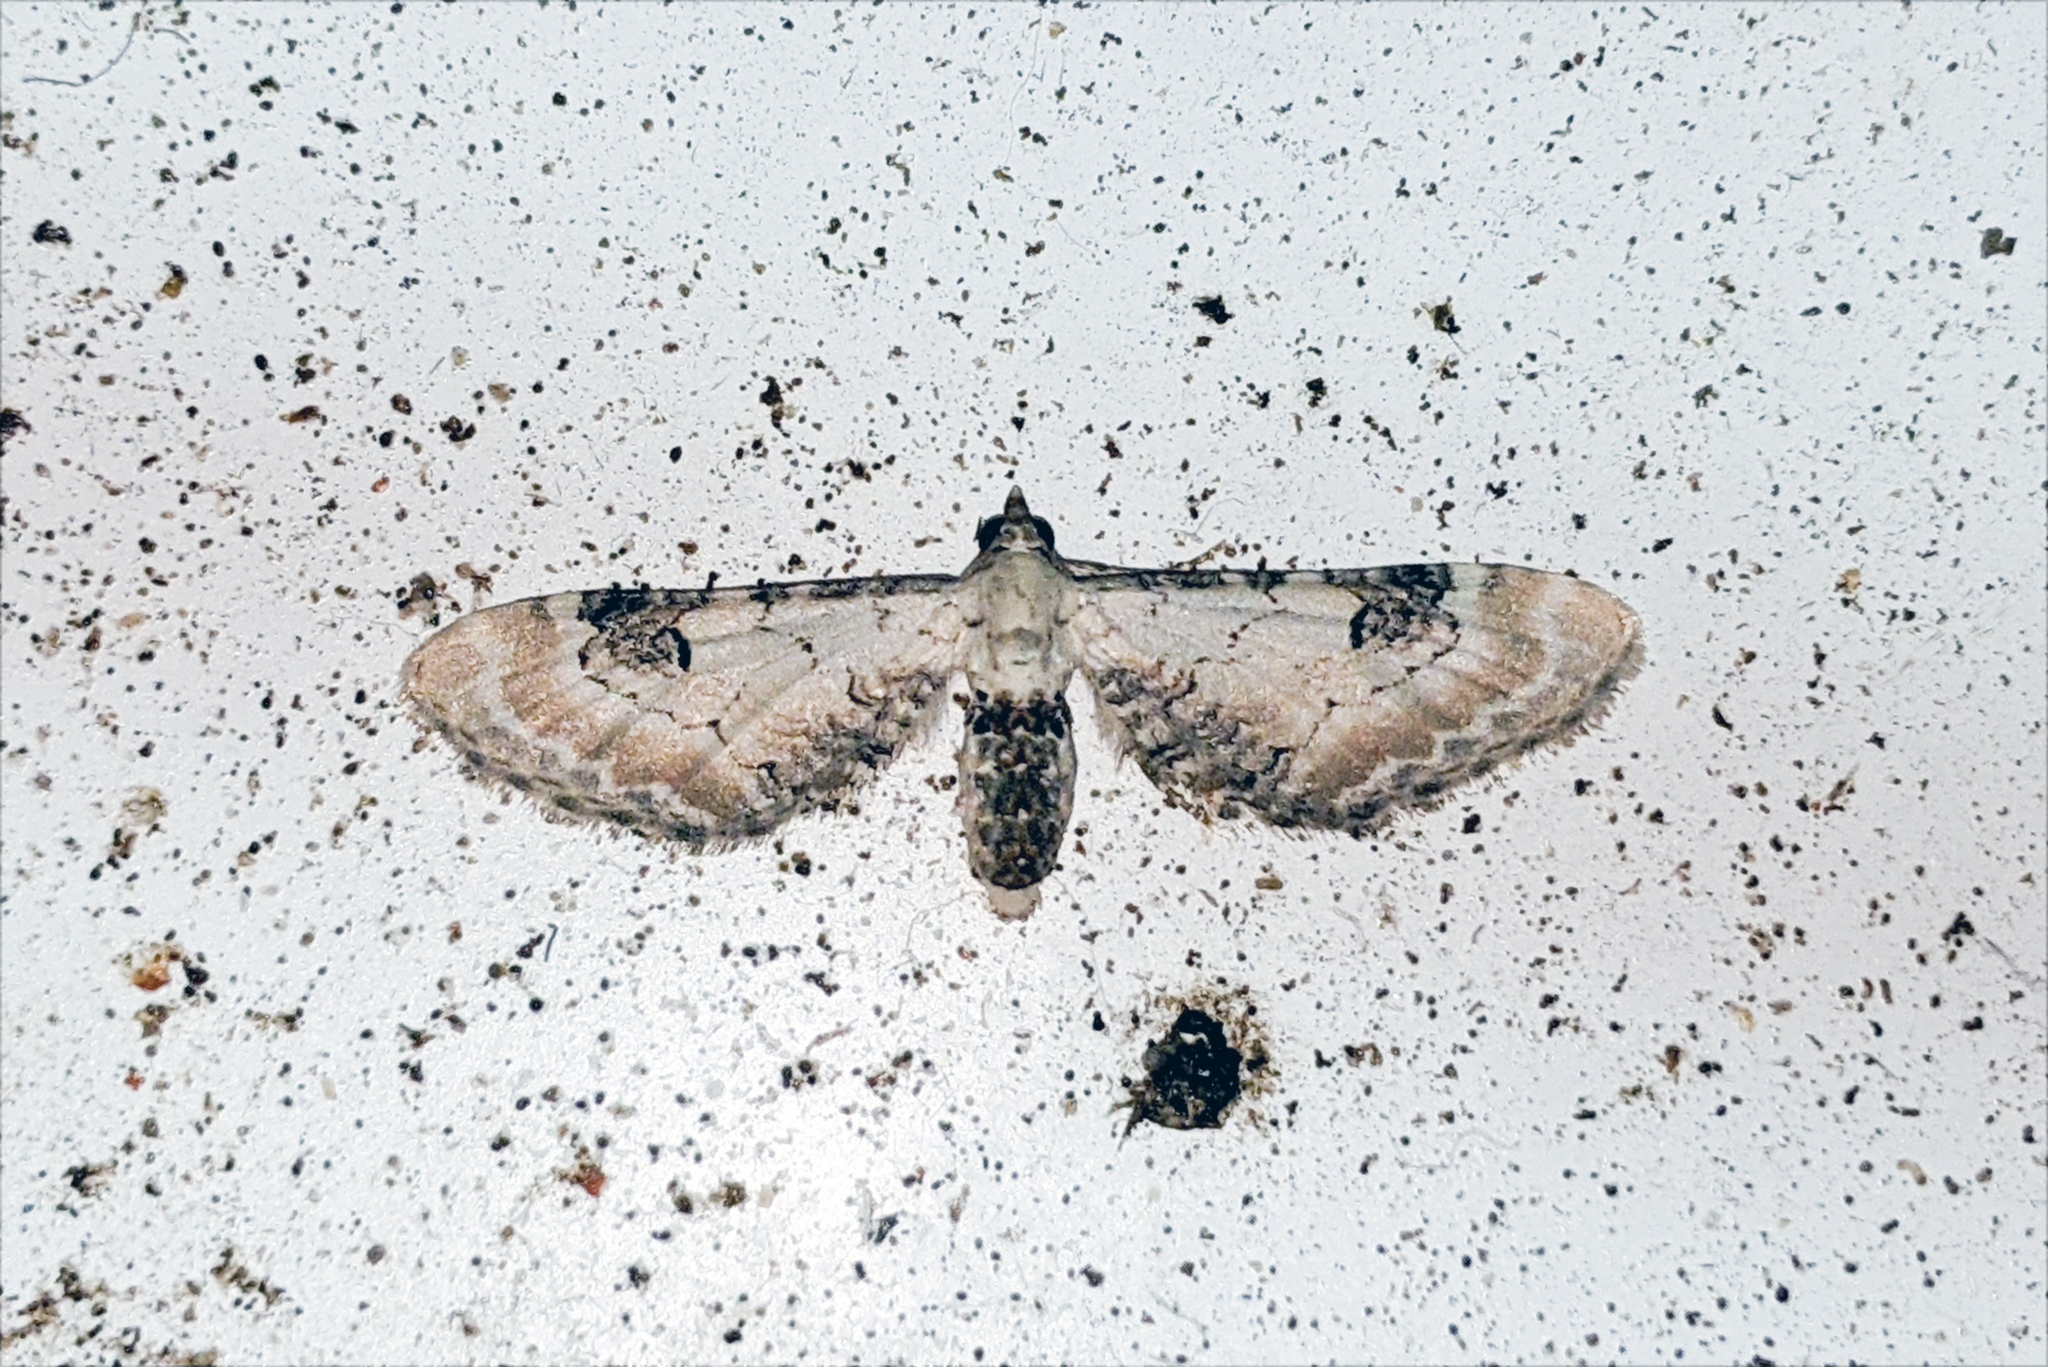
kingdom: Animalia
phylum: Arthropoda
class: Insecta
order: Lepidoptera
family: Geometridae
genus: Eupithecia
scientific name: Eupithecia centaureata
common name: Lime-speck pug
